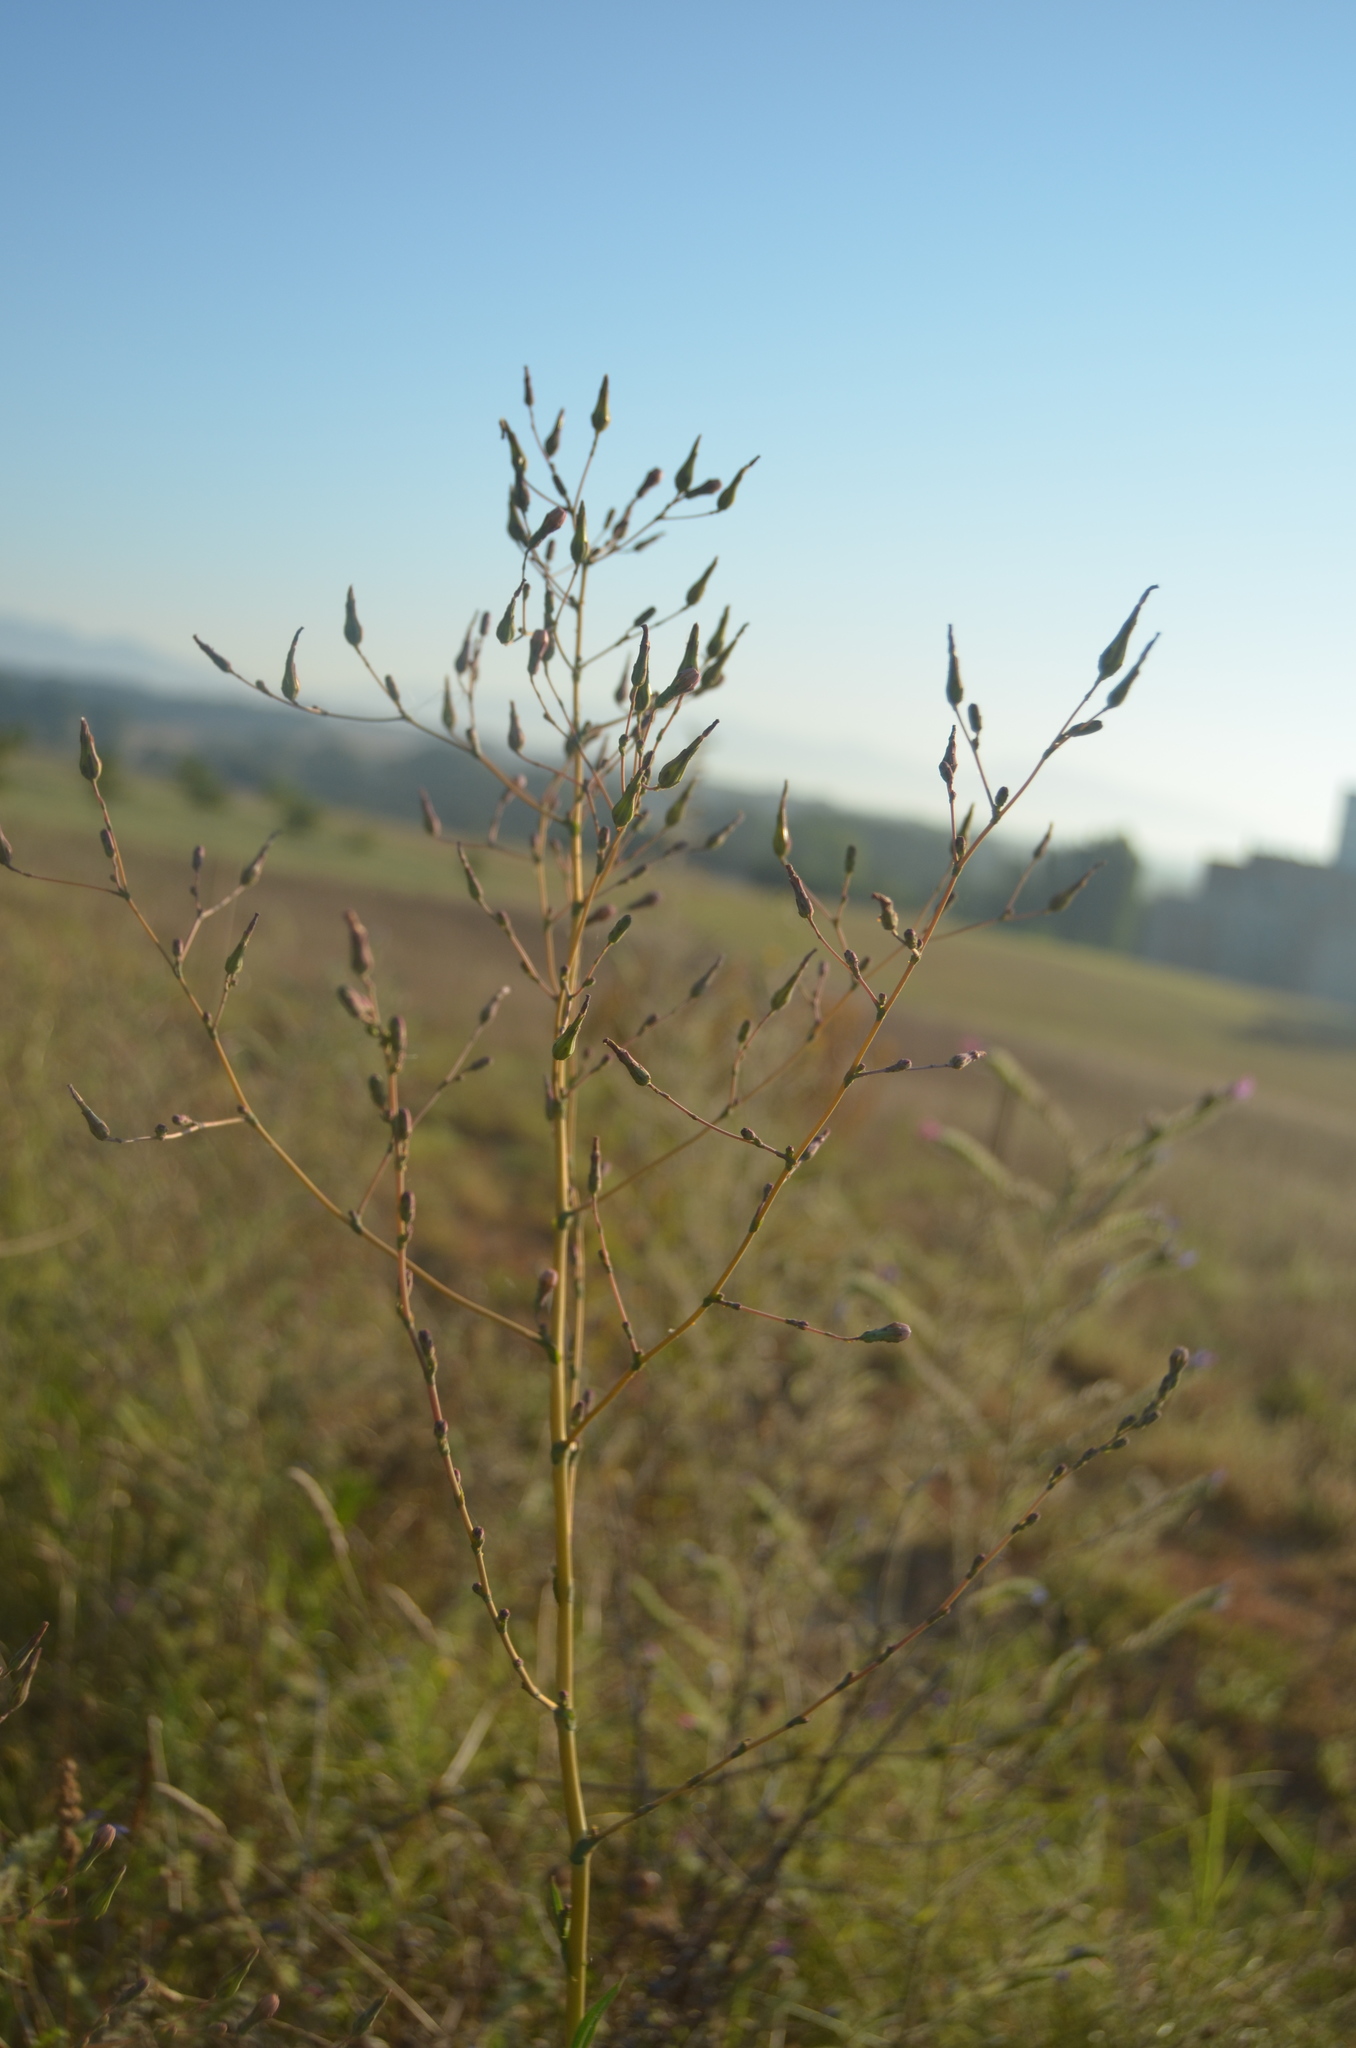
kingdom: Plantae
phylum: Tracheophyta
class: Magnoliopsida
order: Asterales
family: Asteraceae
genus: Lactuca
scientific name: Lactuca serriola
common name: Prickly lettuce
